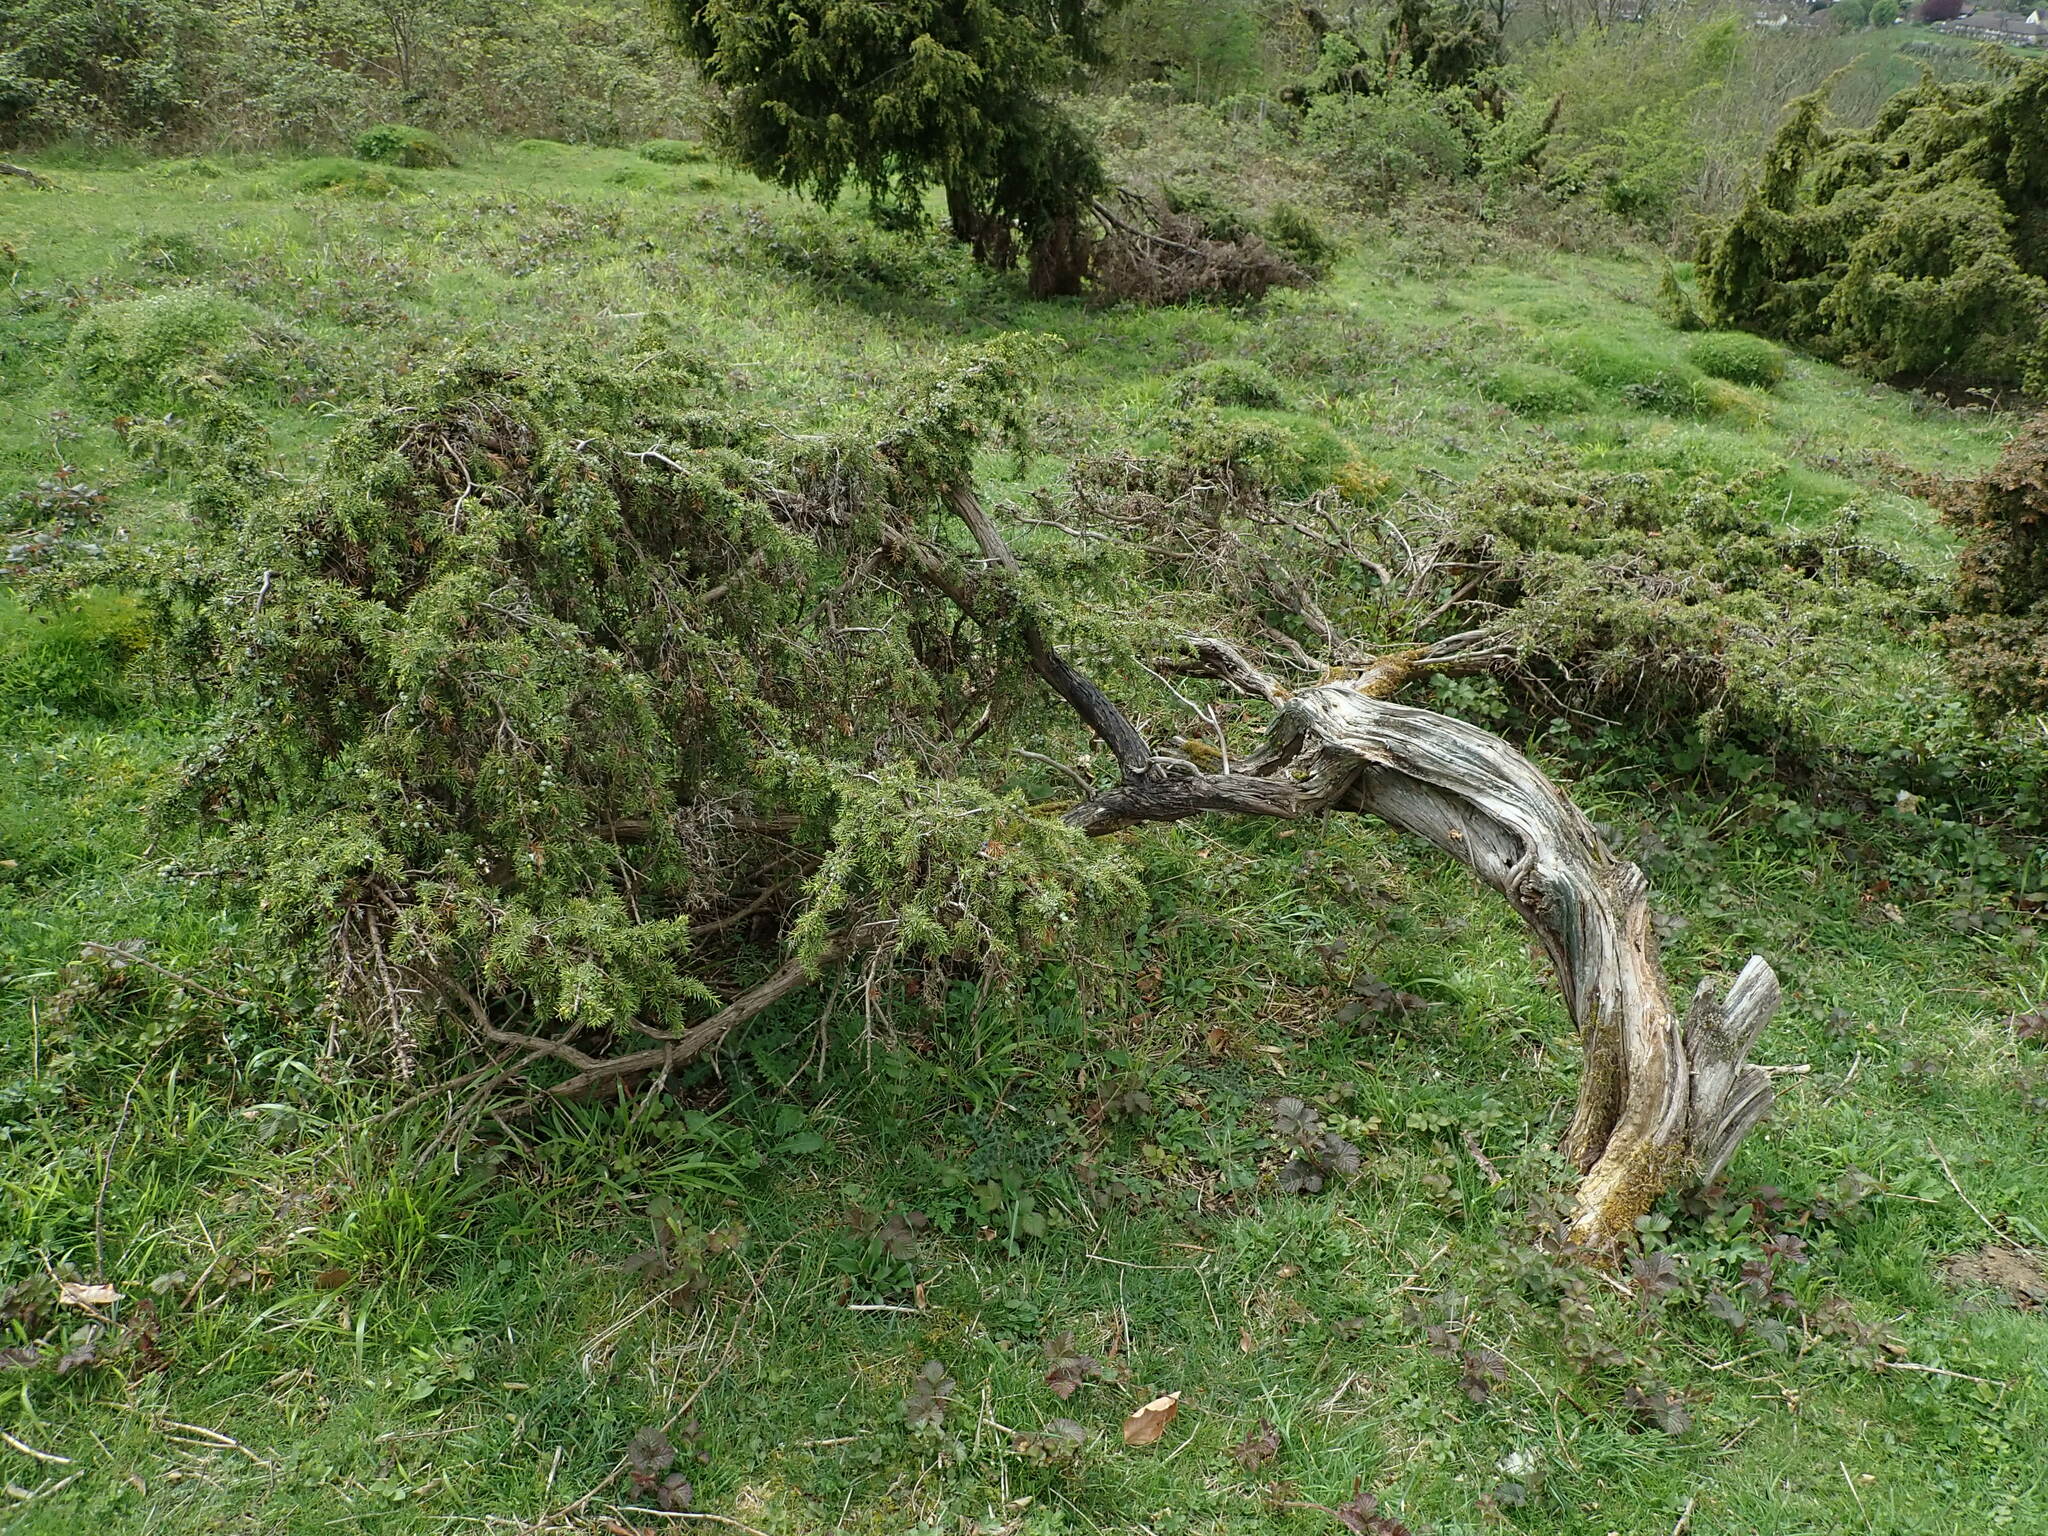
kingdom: Plantae
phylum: Tracheophyta
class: Pinopsida
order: Pinales
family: Cupressaceae
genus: Juniperus
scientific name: Juniperus communis
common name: Common juniper
